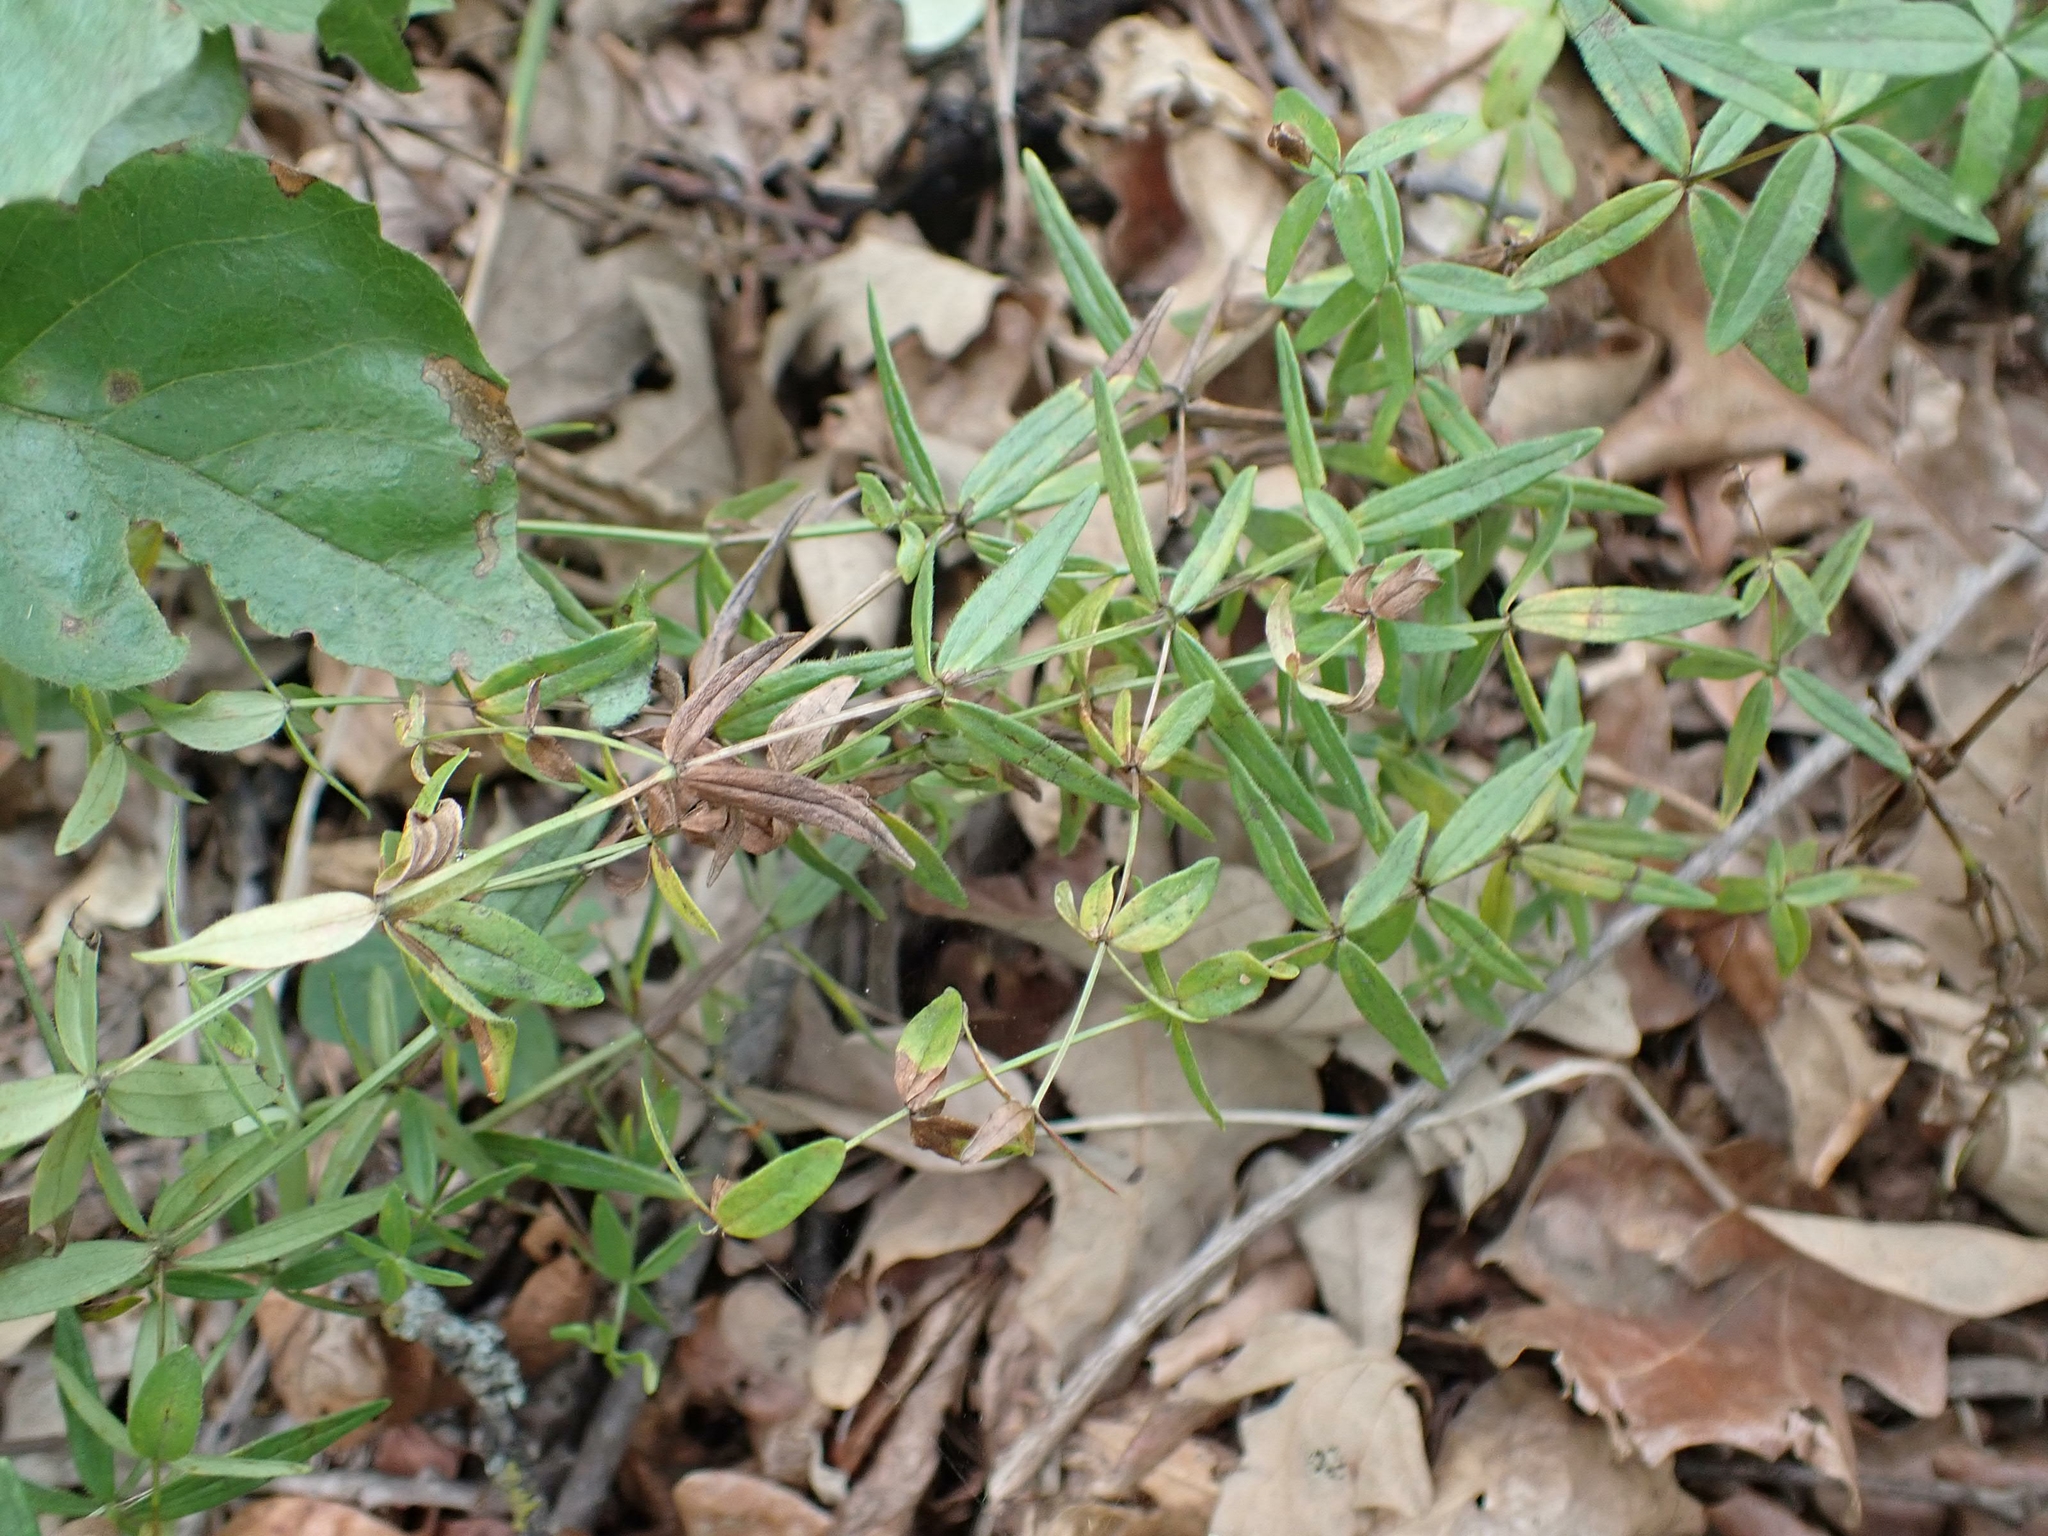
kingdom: Plantae
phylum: Tracheophyta
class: Magnoliopsida
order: Gentianales
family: Rubiaceae
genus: Galium
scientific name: Galium boreale
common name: Northern bedstraw
